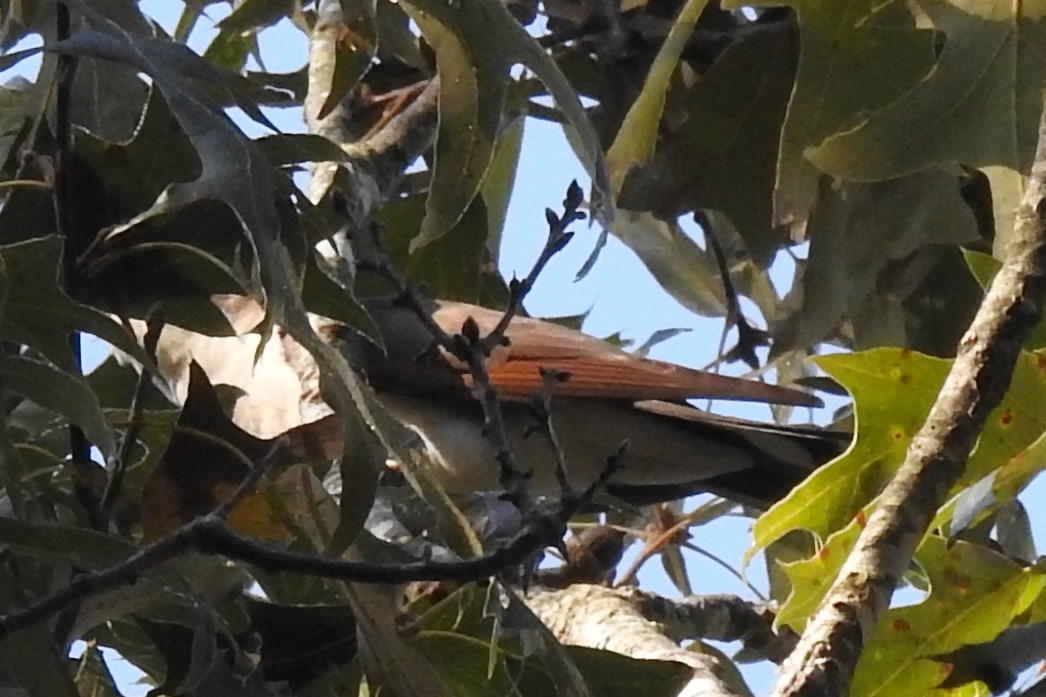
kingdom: Animalia
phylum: Chordata
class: Aves
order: Cuculiformes
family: Cuculidae
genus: Coccyzus
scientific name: Coccyzus americanus
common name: Yellow-billed cuckoo
